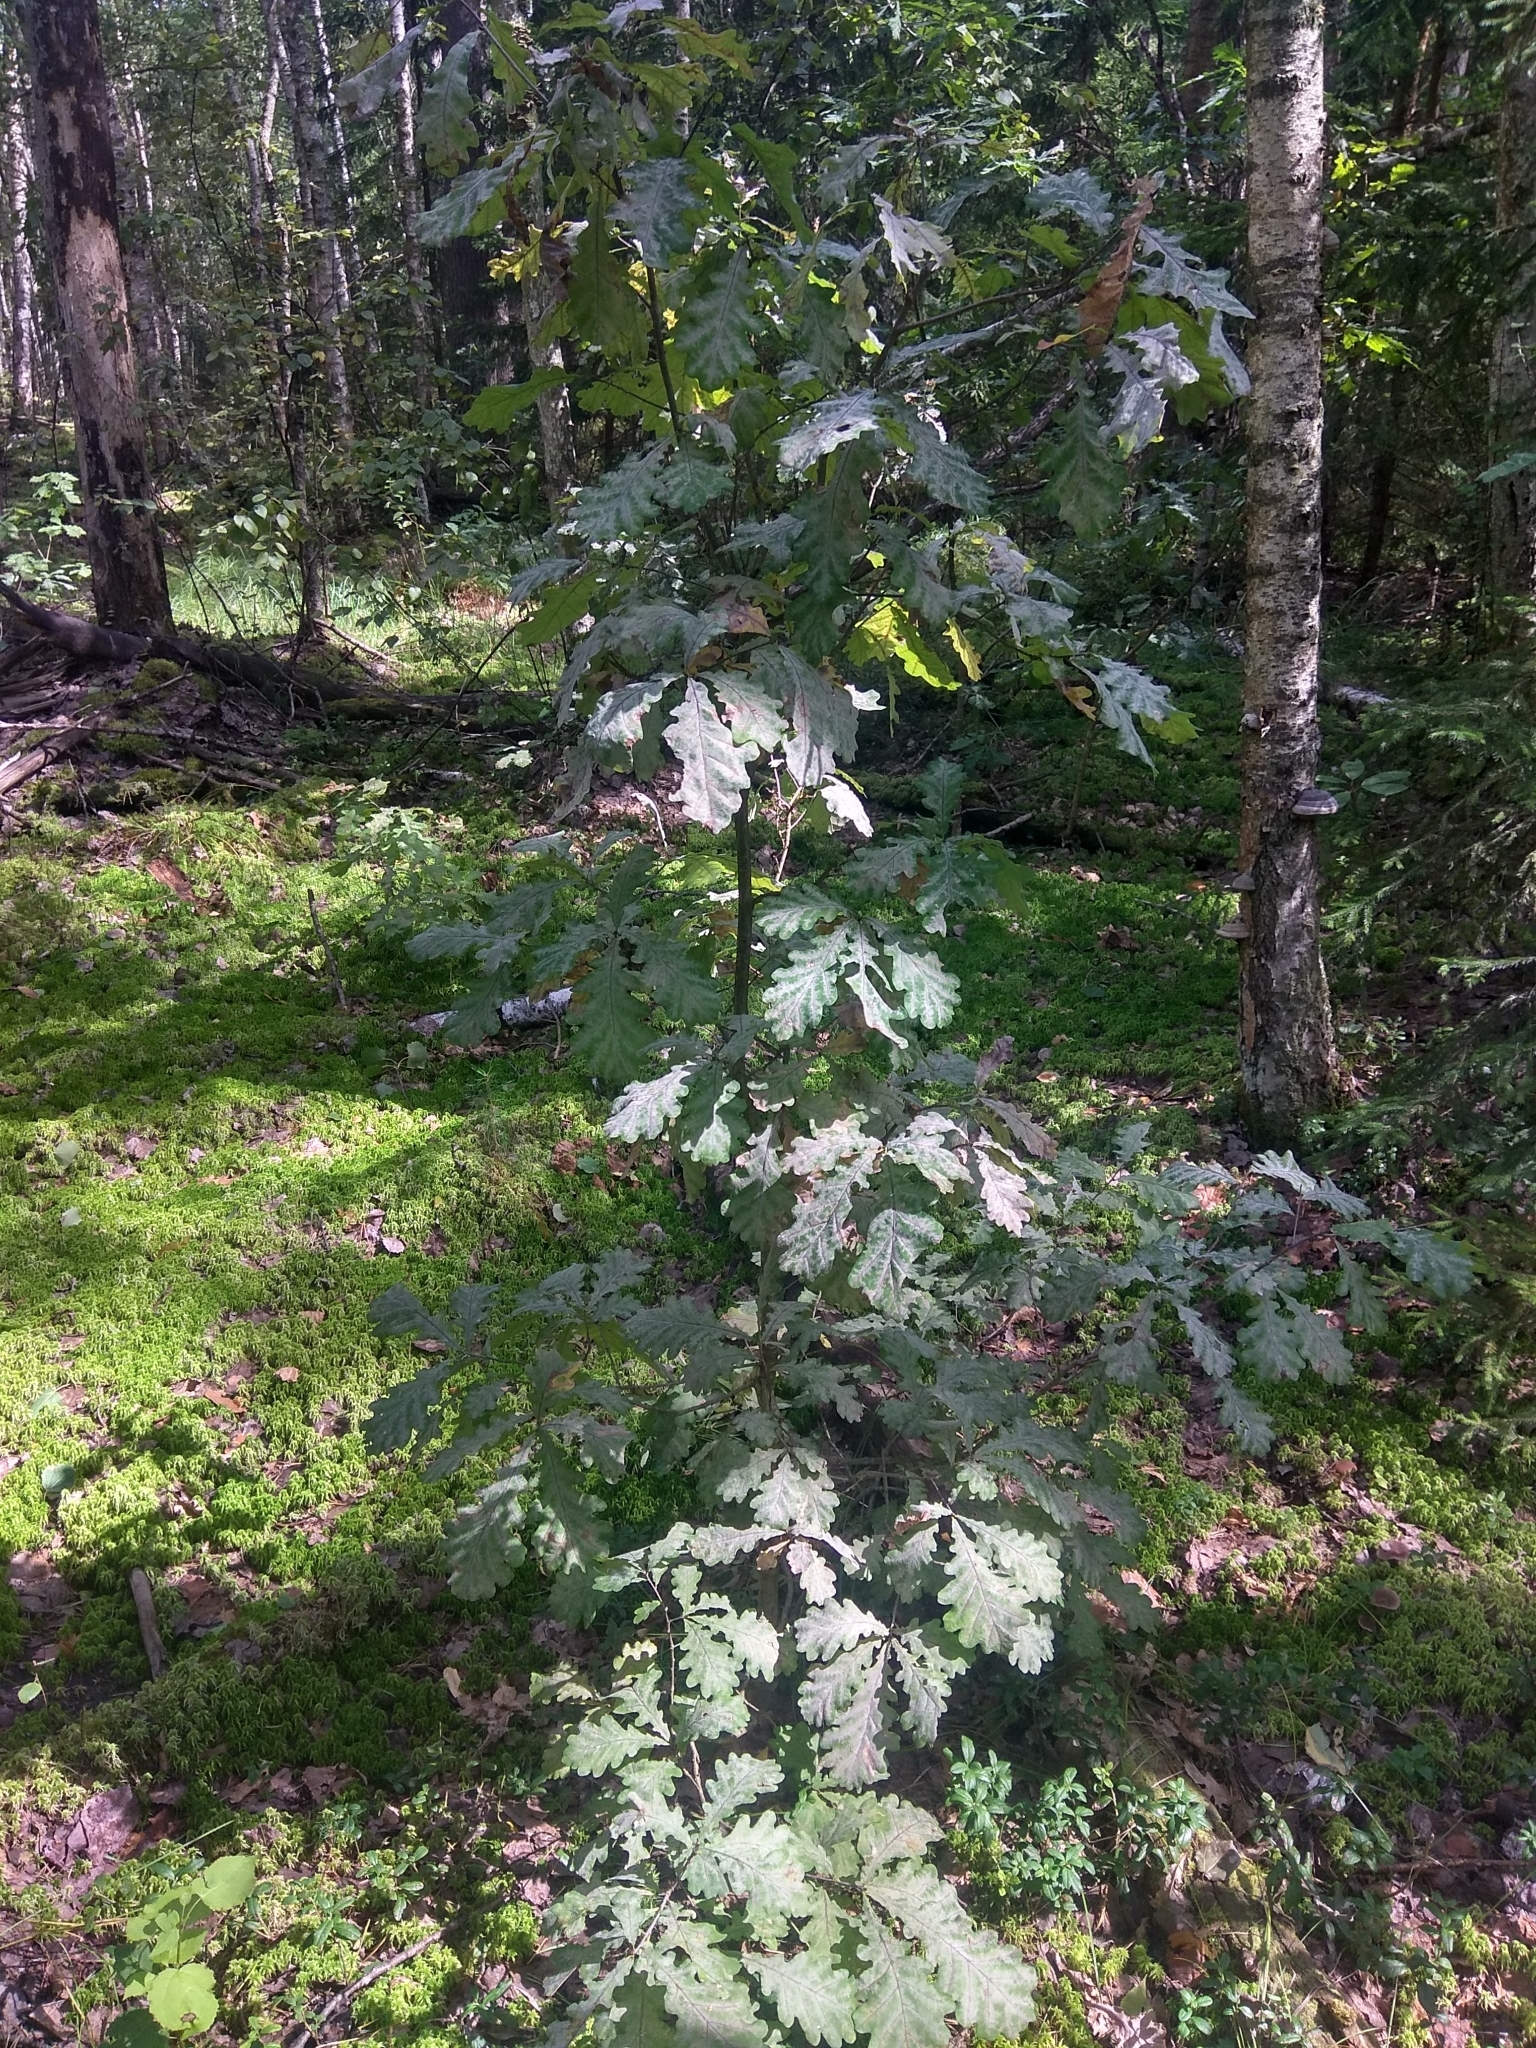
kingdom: Plantae
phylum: Tracheophyta
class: Magnoliopsida
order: Fagales
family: Fagaceae
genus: Quercus
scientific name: Quercus robur
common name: Pedunculate oak
